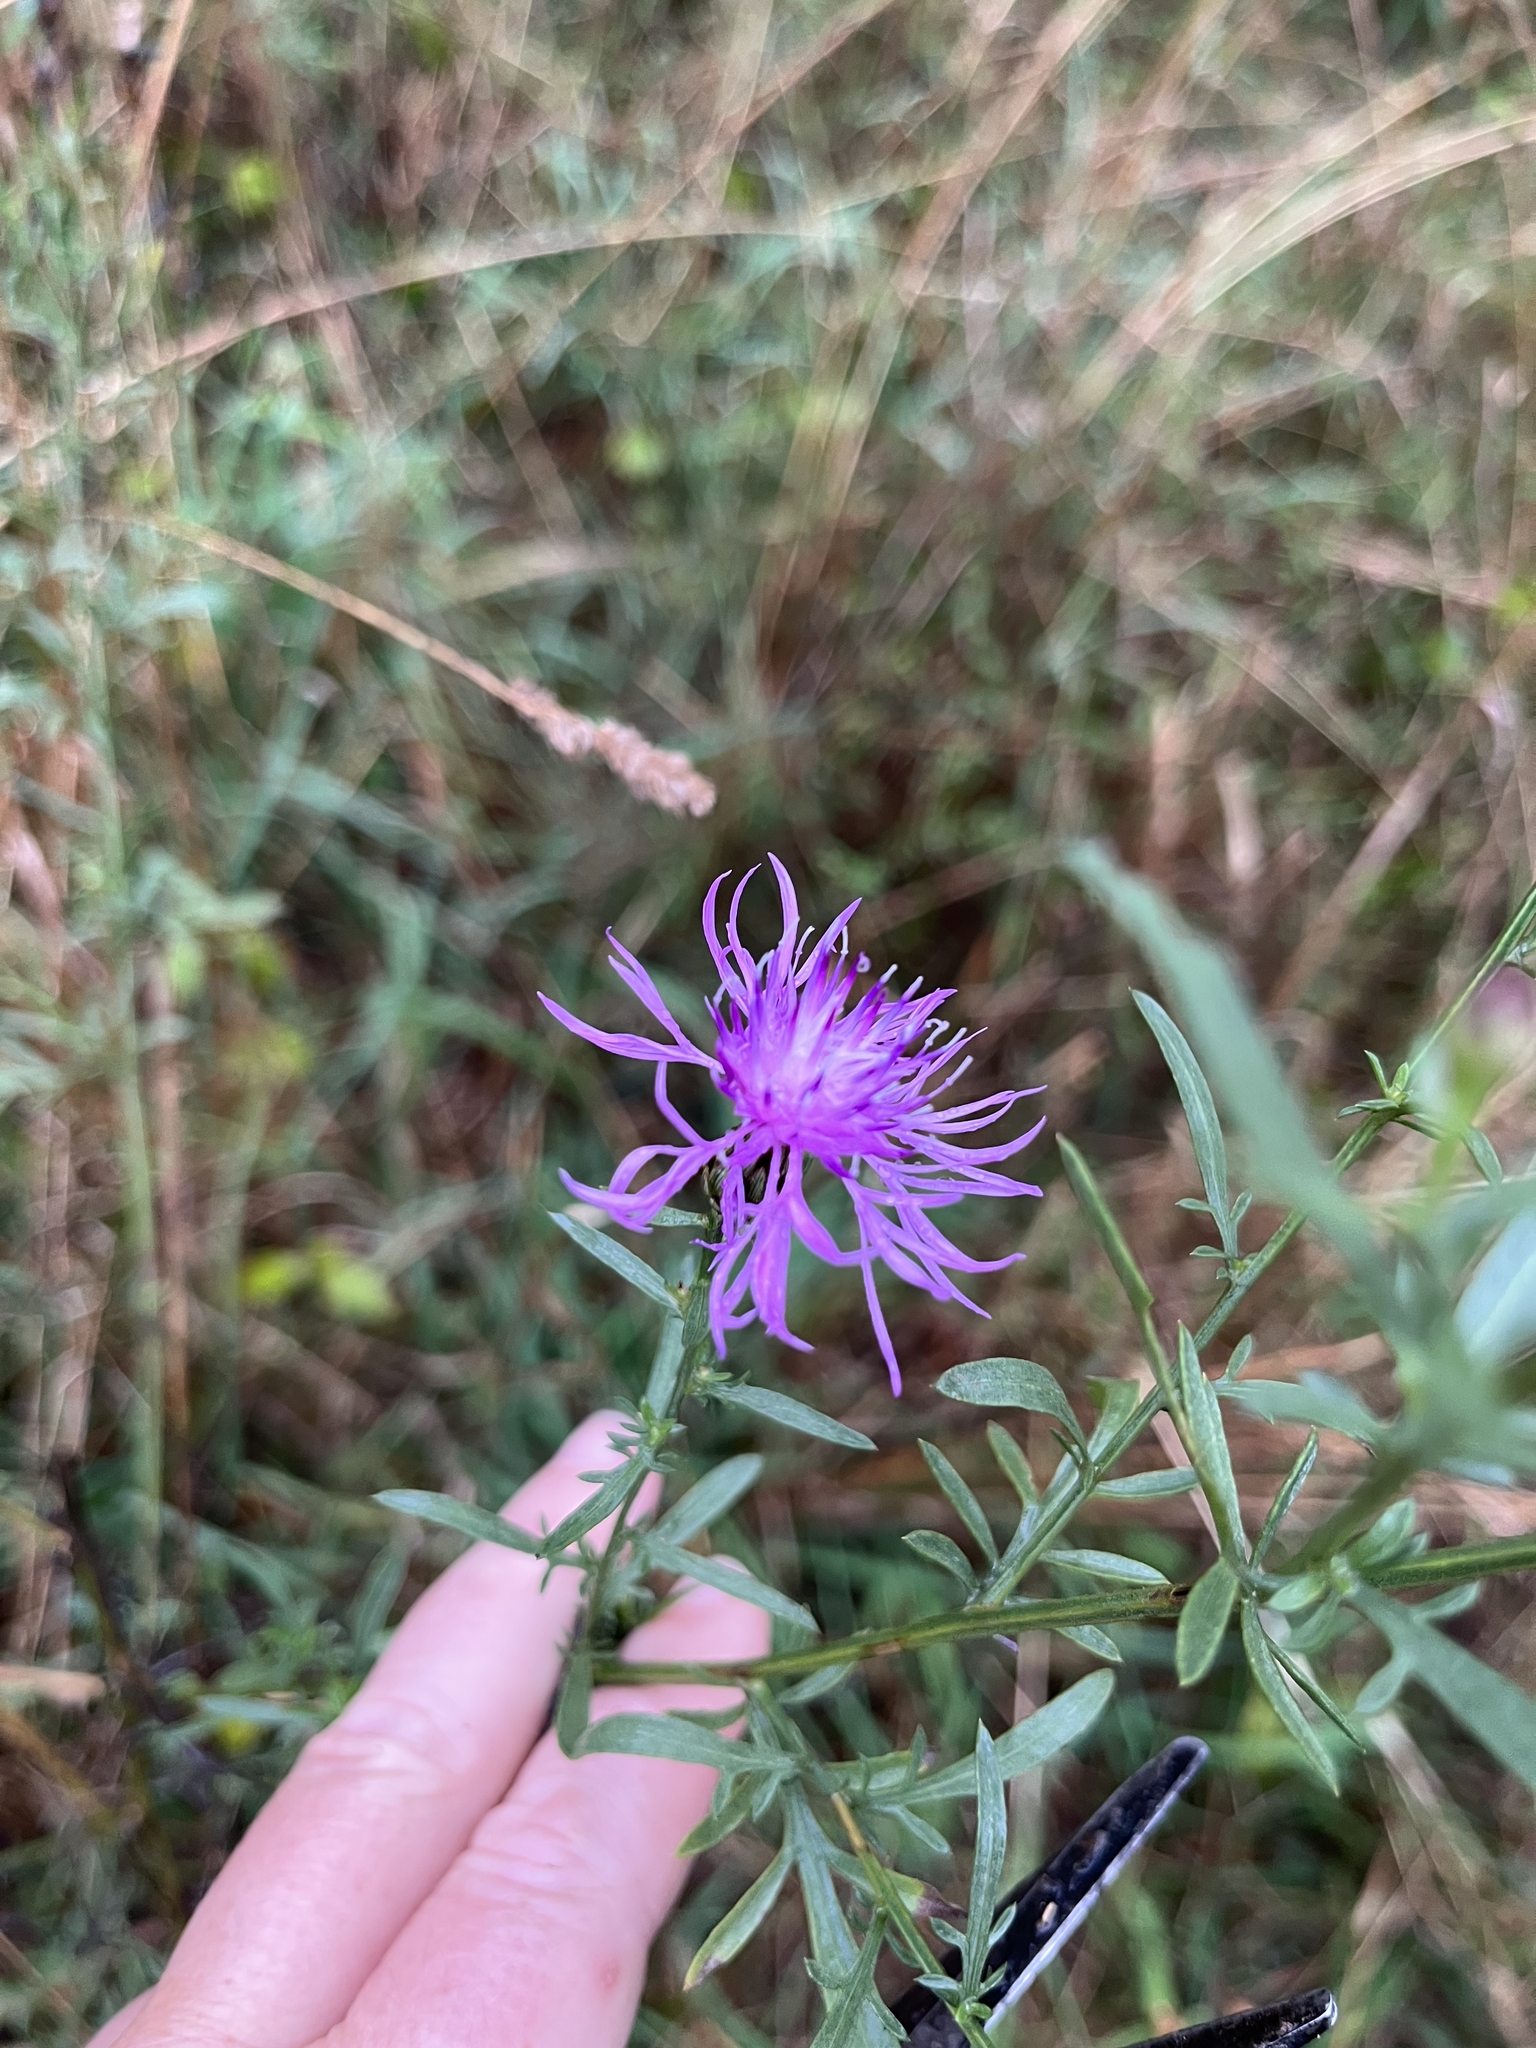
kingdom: Plantae
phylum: Tracheophyta
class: Magnoliopsida
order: Asterales
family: Asteraceae
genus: Centaurea
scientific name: Centaurea stoebe
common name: Spotted knapweed
